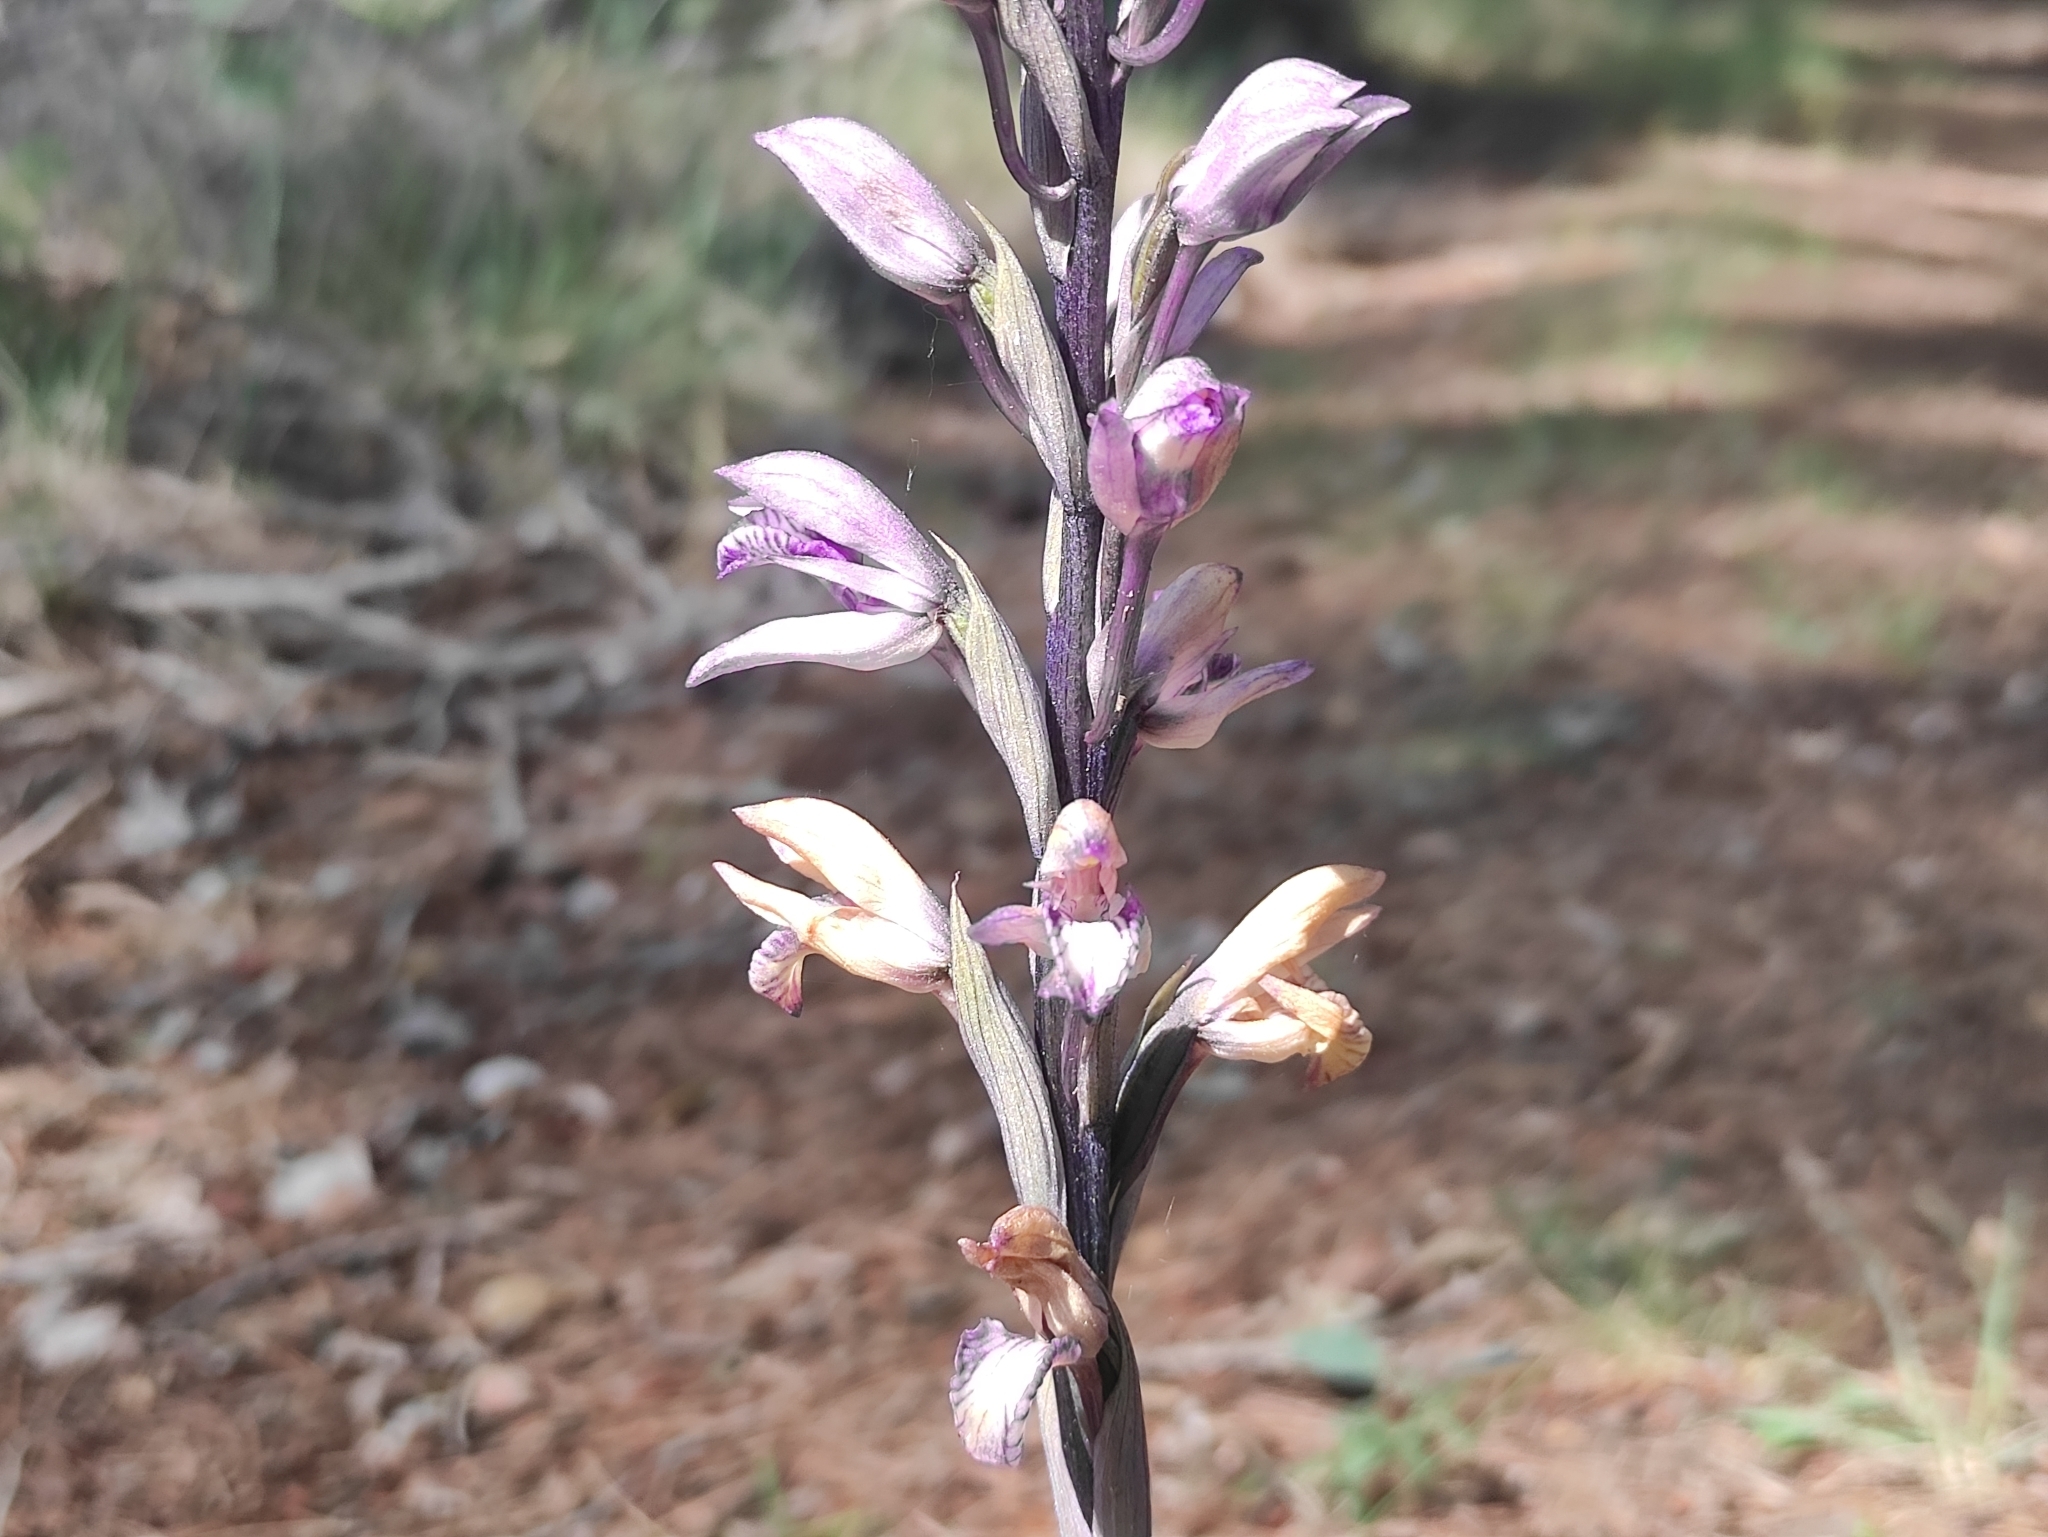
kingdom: Plantae
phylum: Tracheophyta
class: Liliopsida
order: Asparagales
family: Orchidaceae
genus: Limodorum
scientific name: Limodorum abortivum
